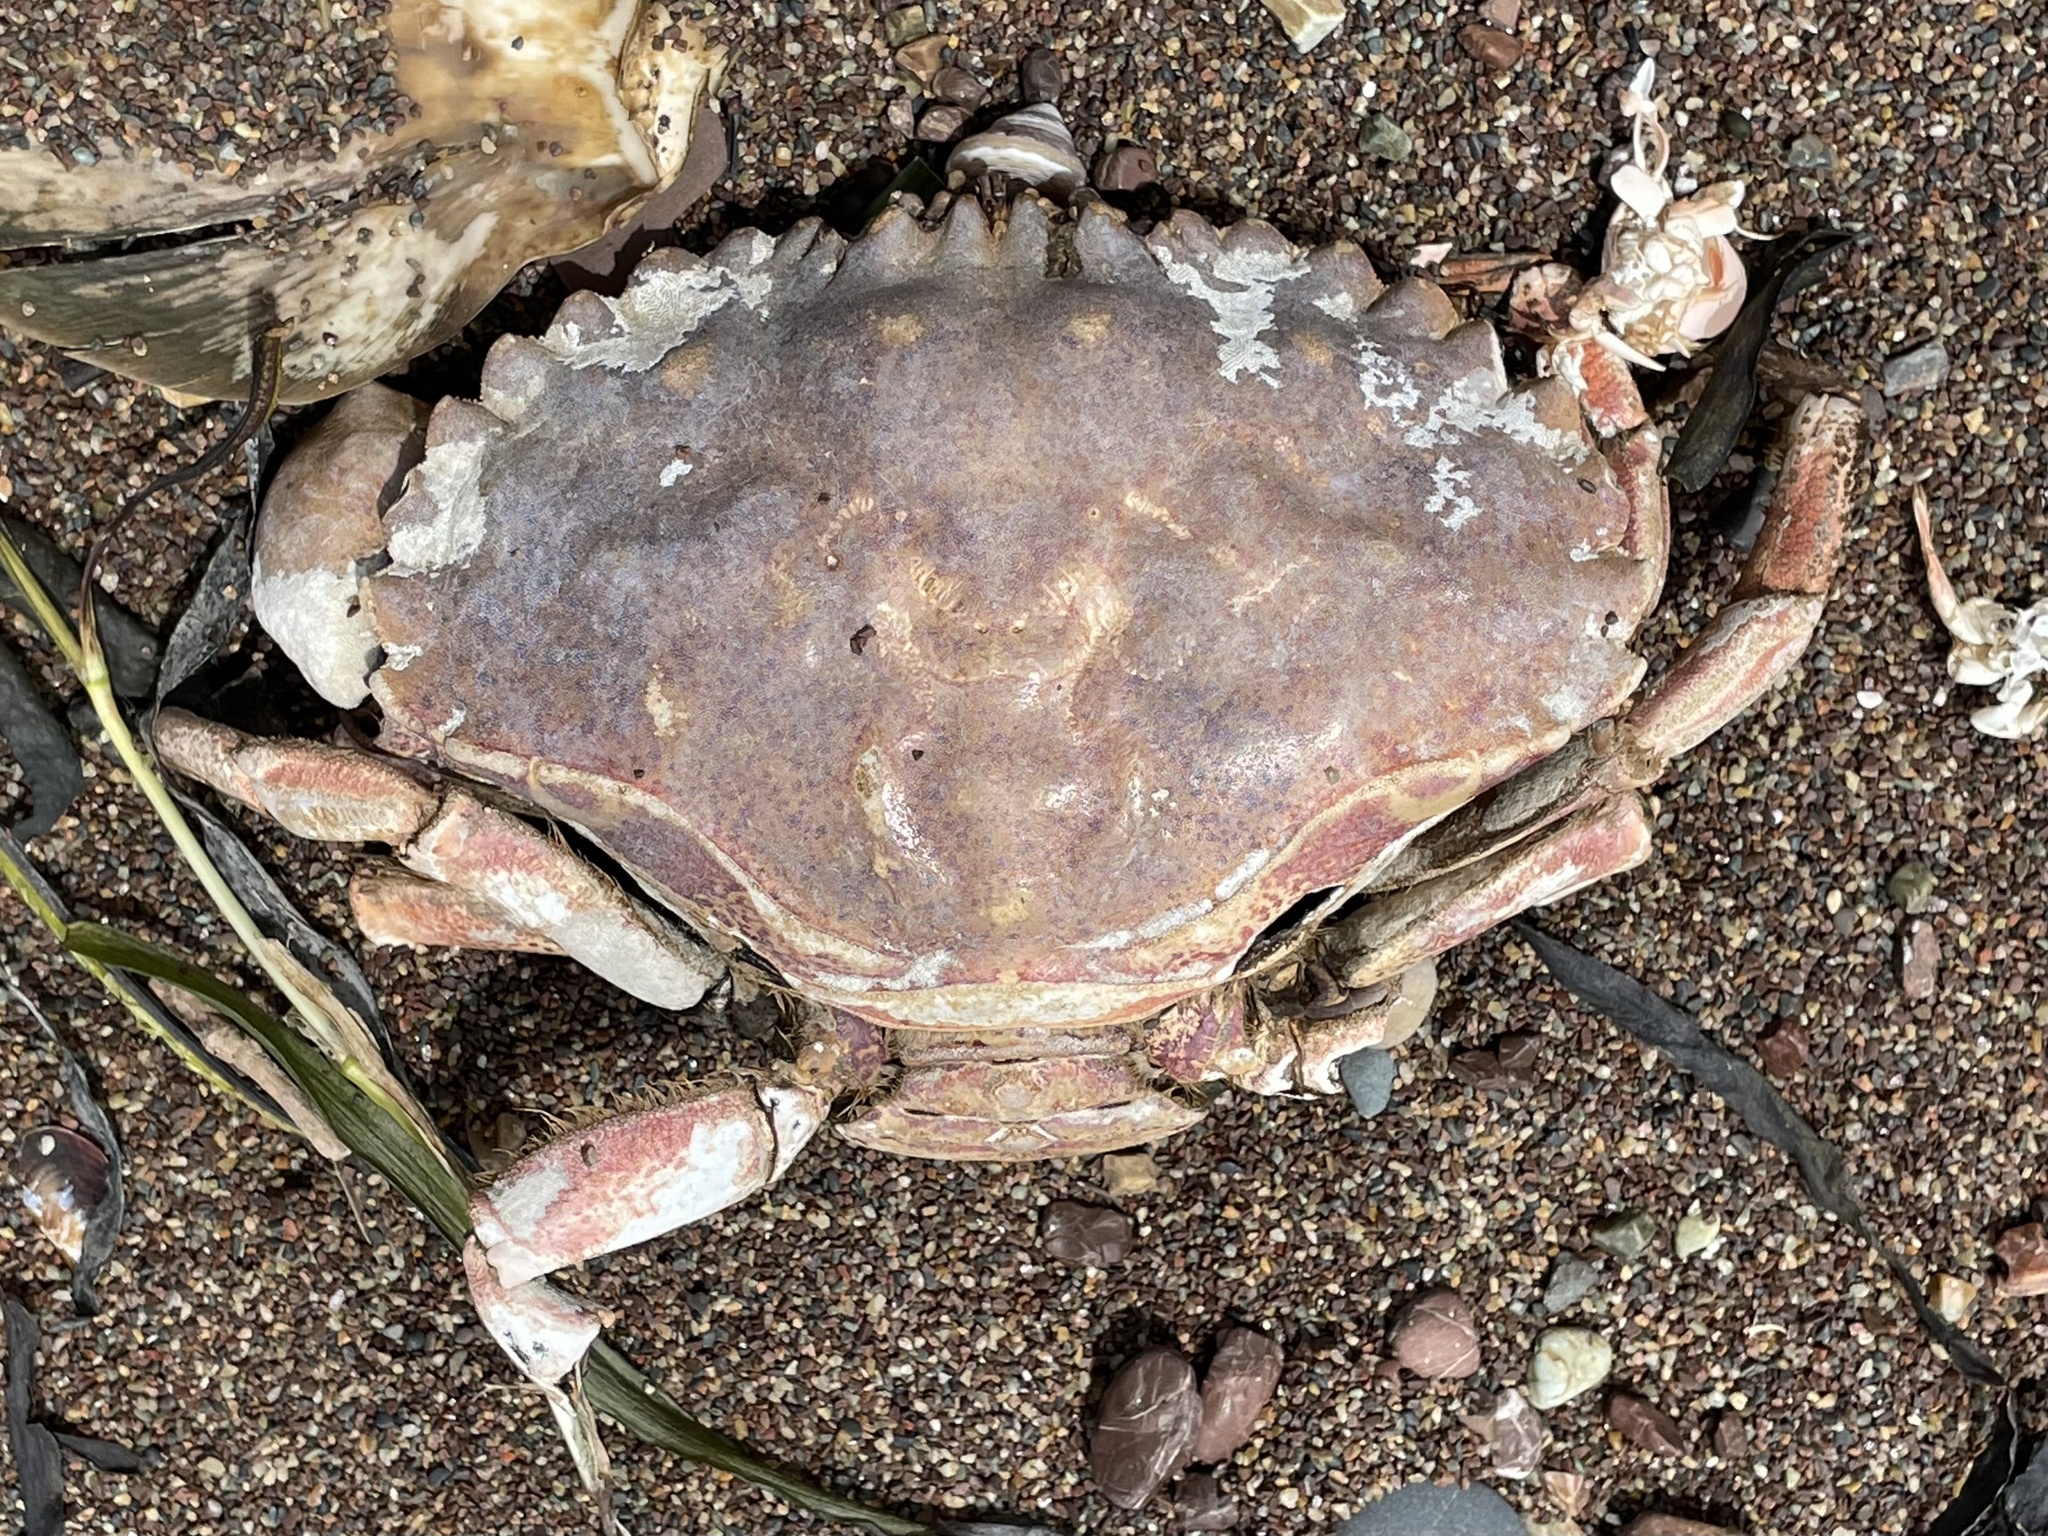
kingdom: Animalia
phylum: Arthropoda
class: Malacostraca
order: Decapoda
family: Cancridae
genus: Romaleon
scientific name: Romaleon antennarium
